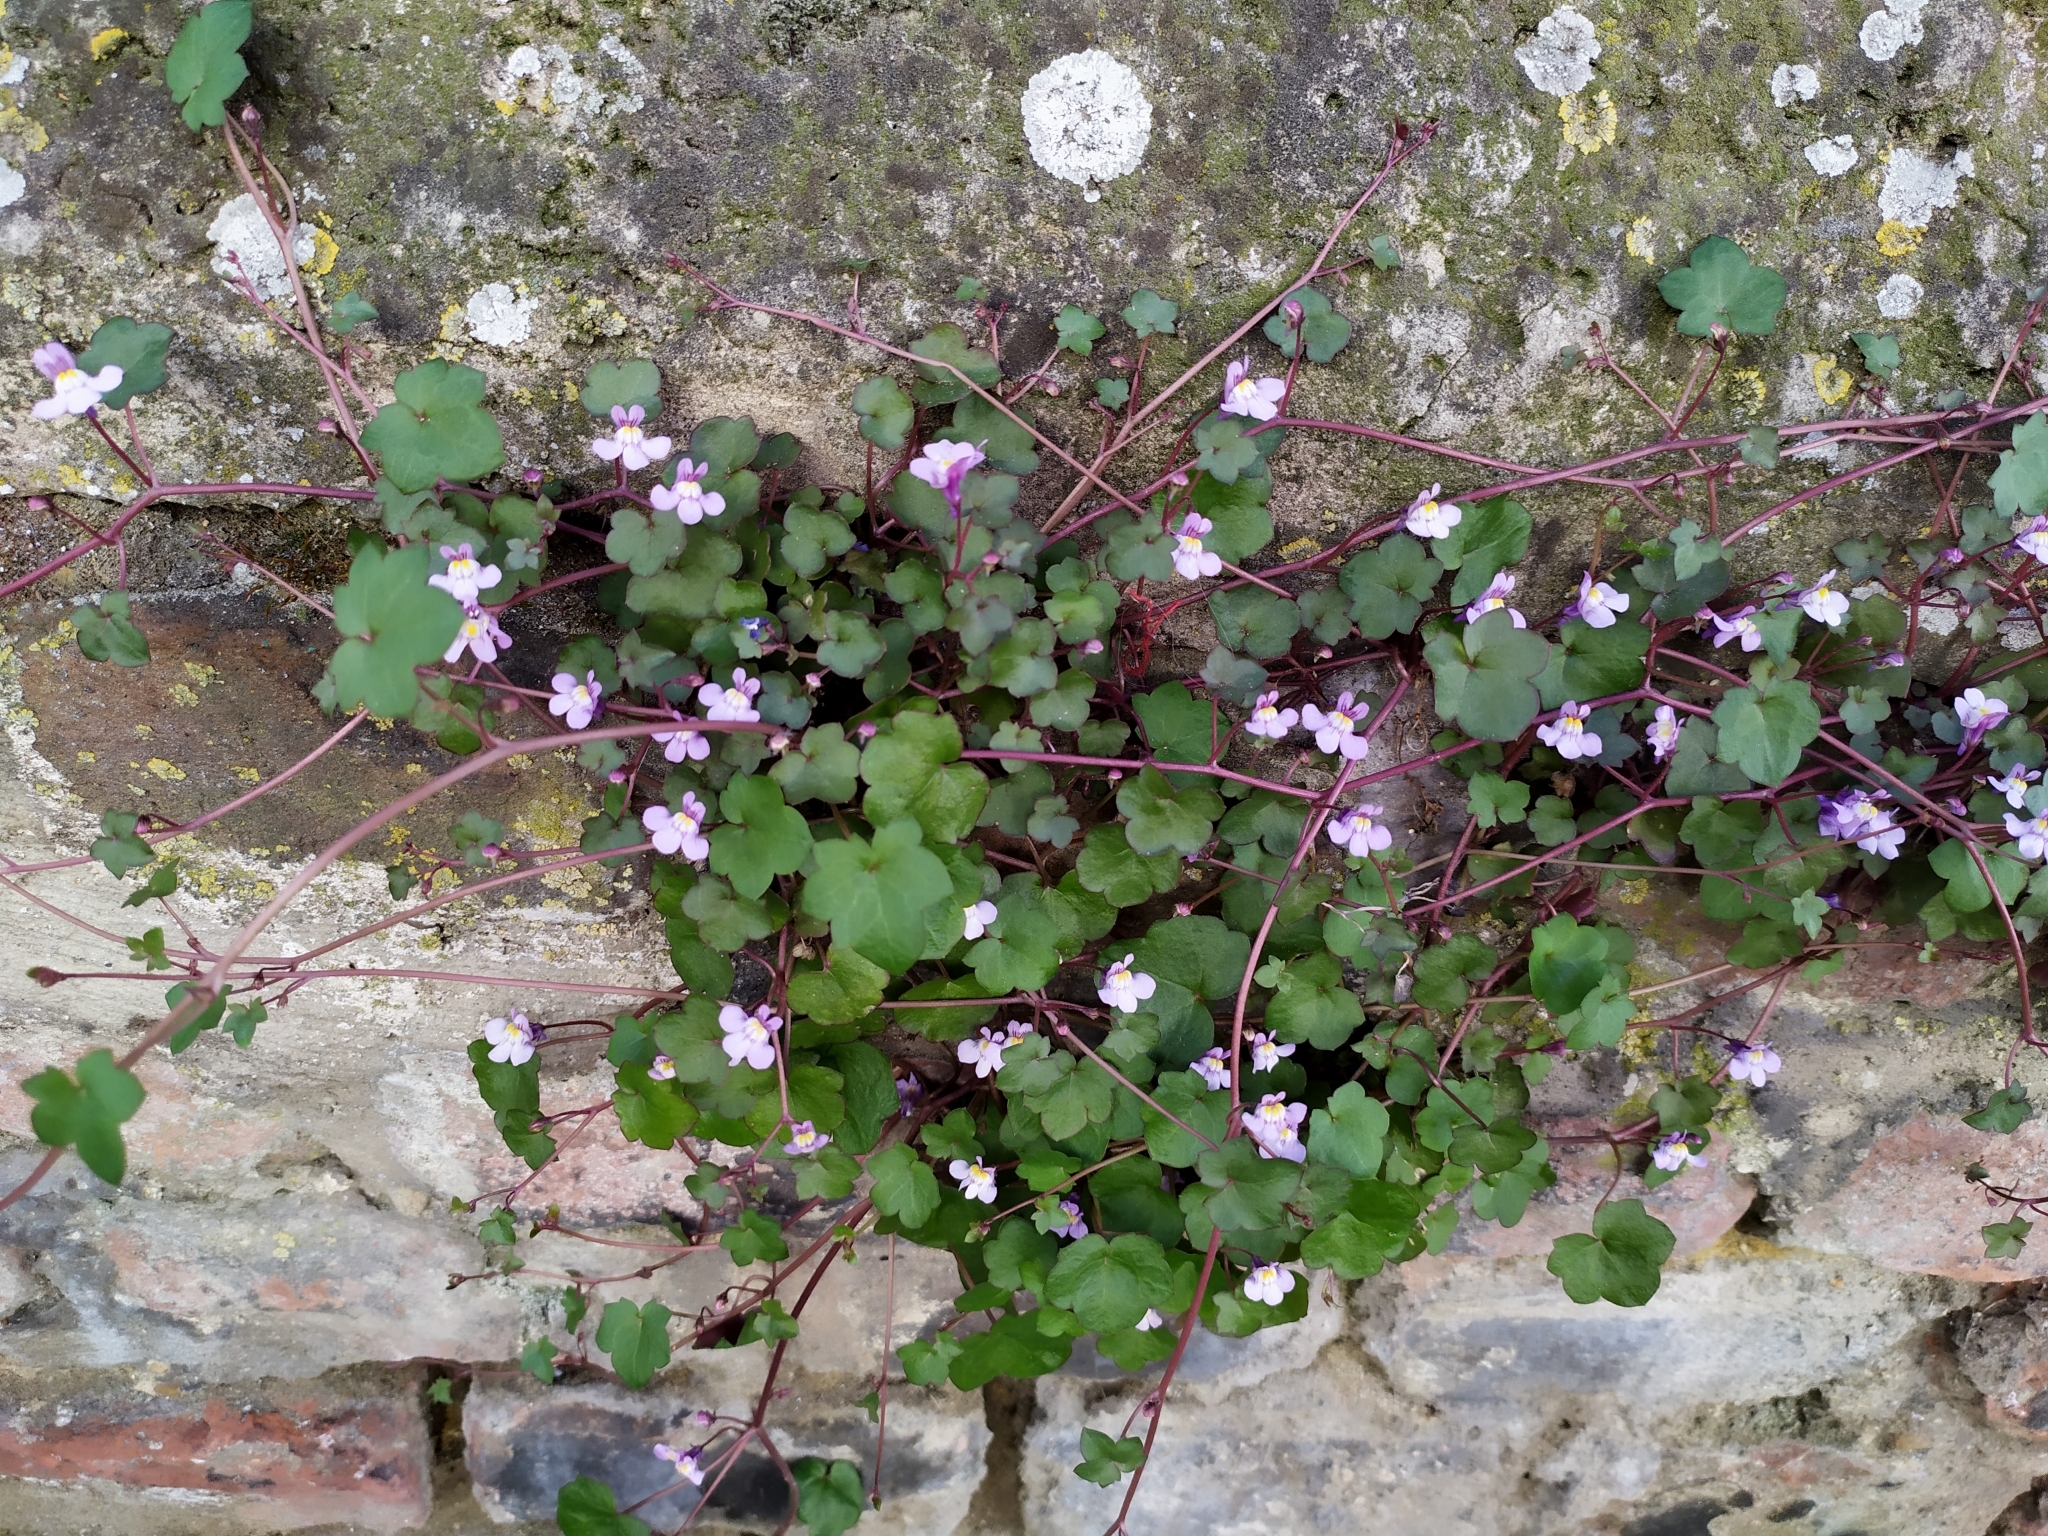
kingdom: Plantae
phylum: Tracheophyta
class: Magnoliopsida
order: Lamiales
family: Plantaginaceae
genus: Cymbalaria
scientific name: Cymbalaria muralis
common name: Ivy-leaved toadflax
